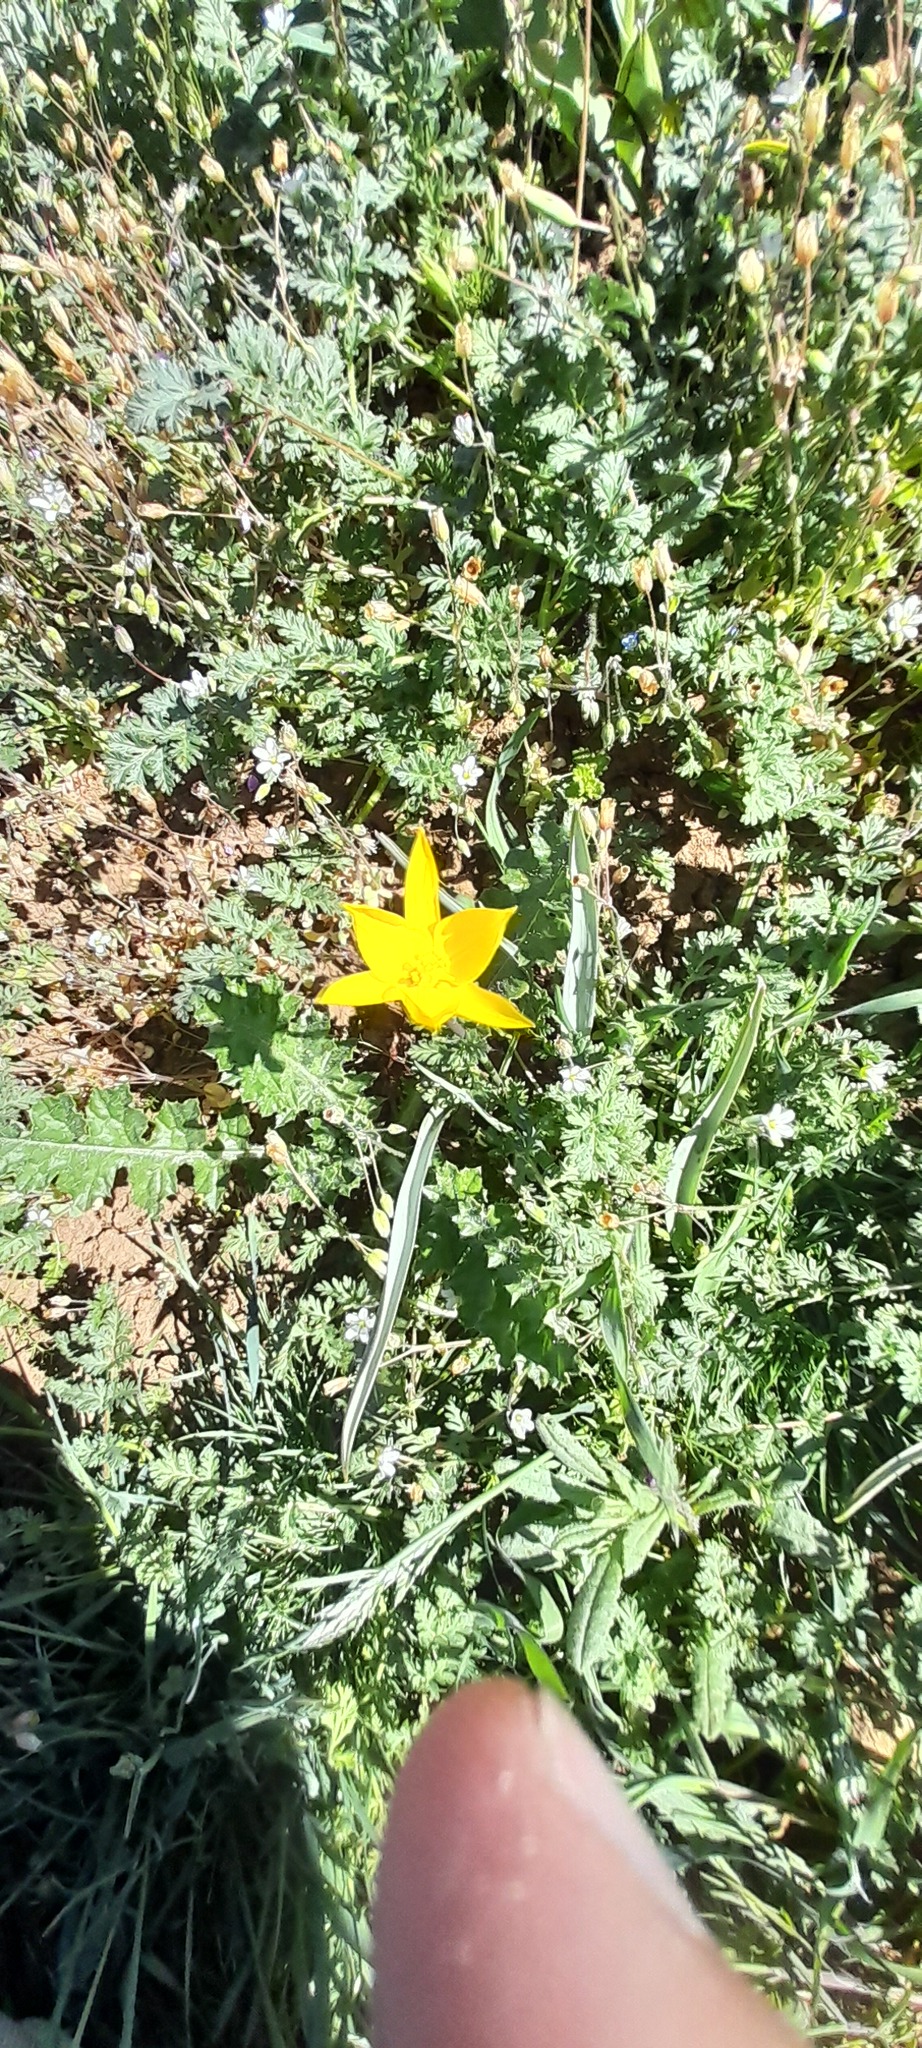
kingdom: Plantae
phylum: Tracheophyta
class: Liliopsida
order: Liliales
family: Liliaceae
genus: Tulipa
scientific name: Tulipa sylvestris
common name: Wild tulip
